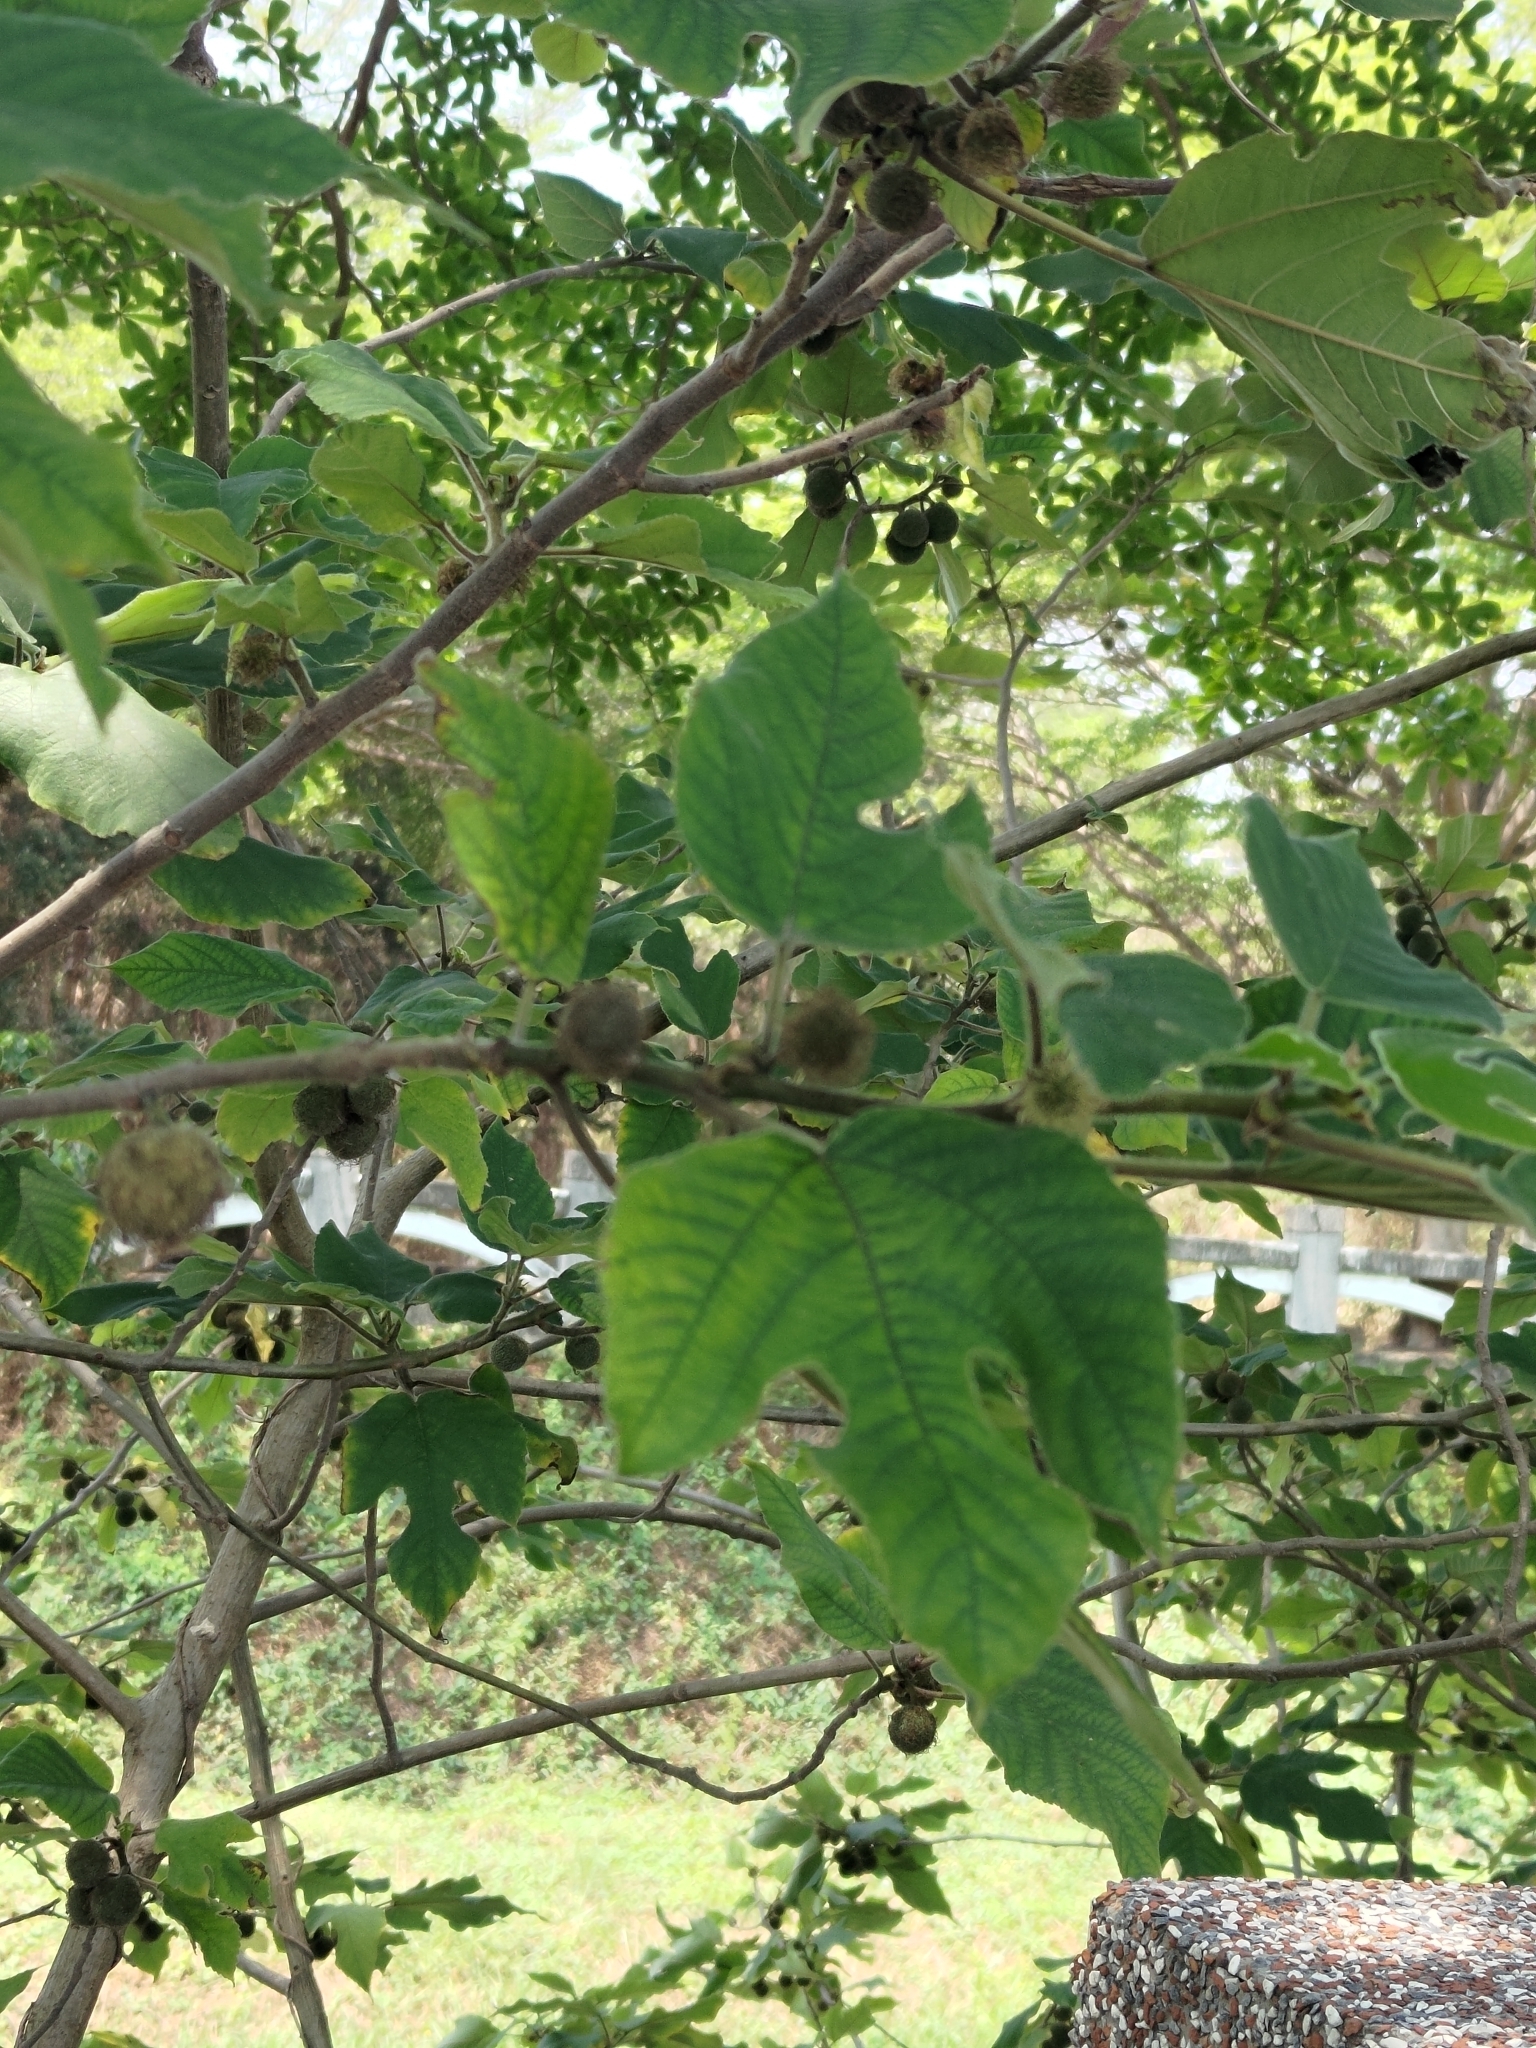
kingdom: Plantae
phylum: Tracheophyta
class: Magnoliopsida
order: Rosales
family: Moraceae
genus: Broussonetia
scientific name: Broussonetia papyrifera
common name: Paper mulberry
